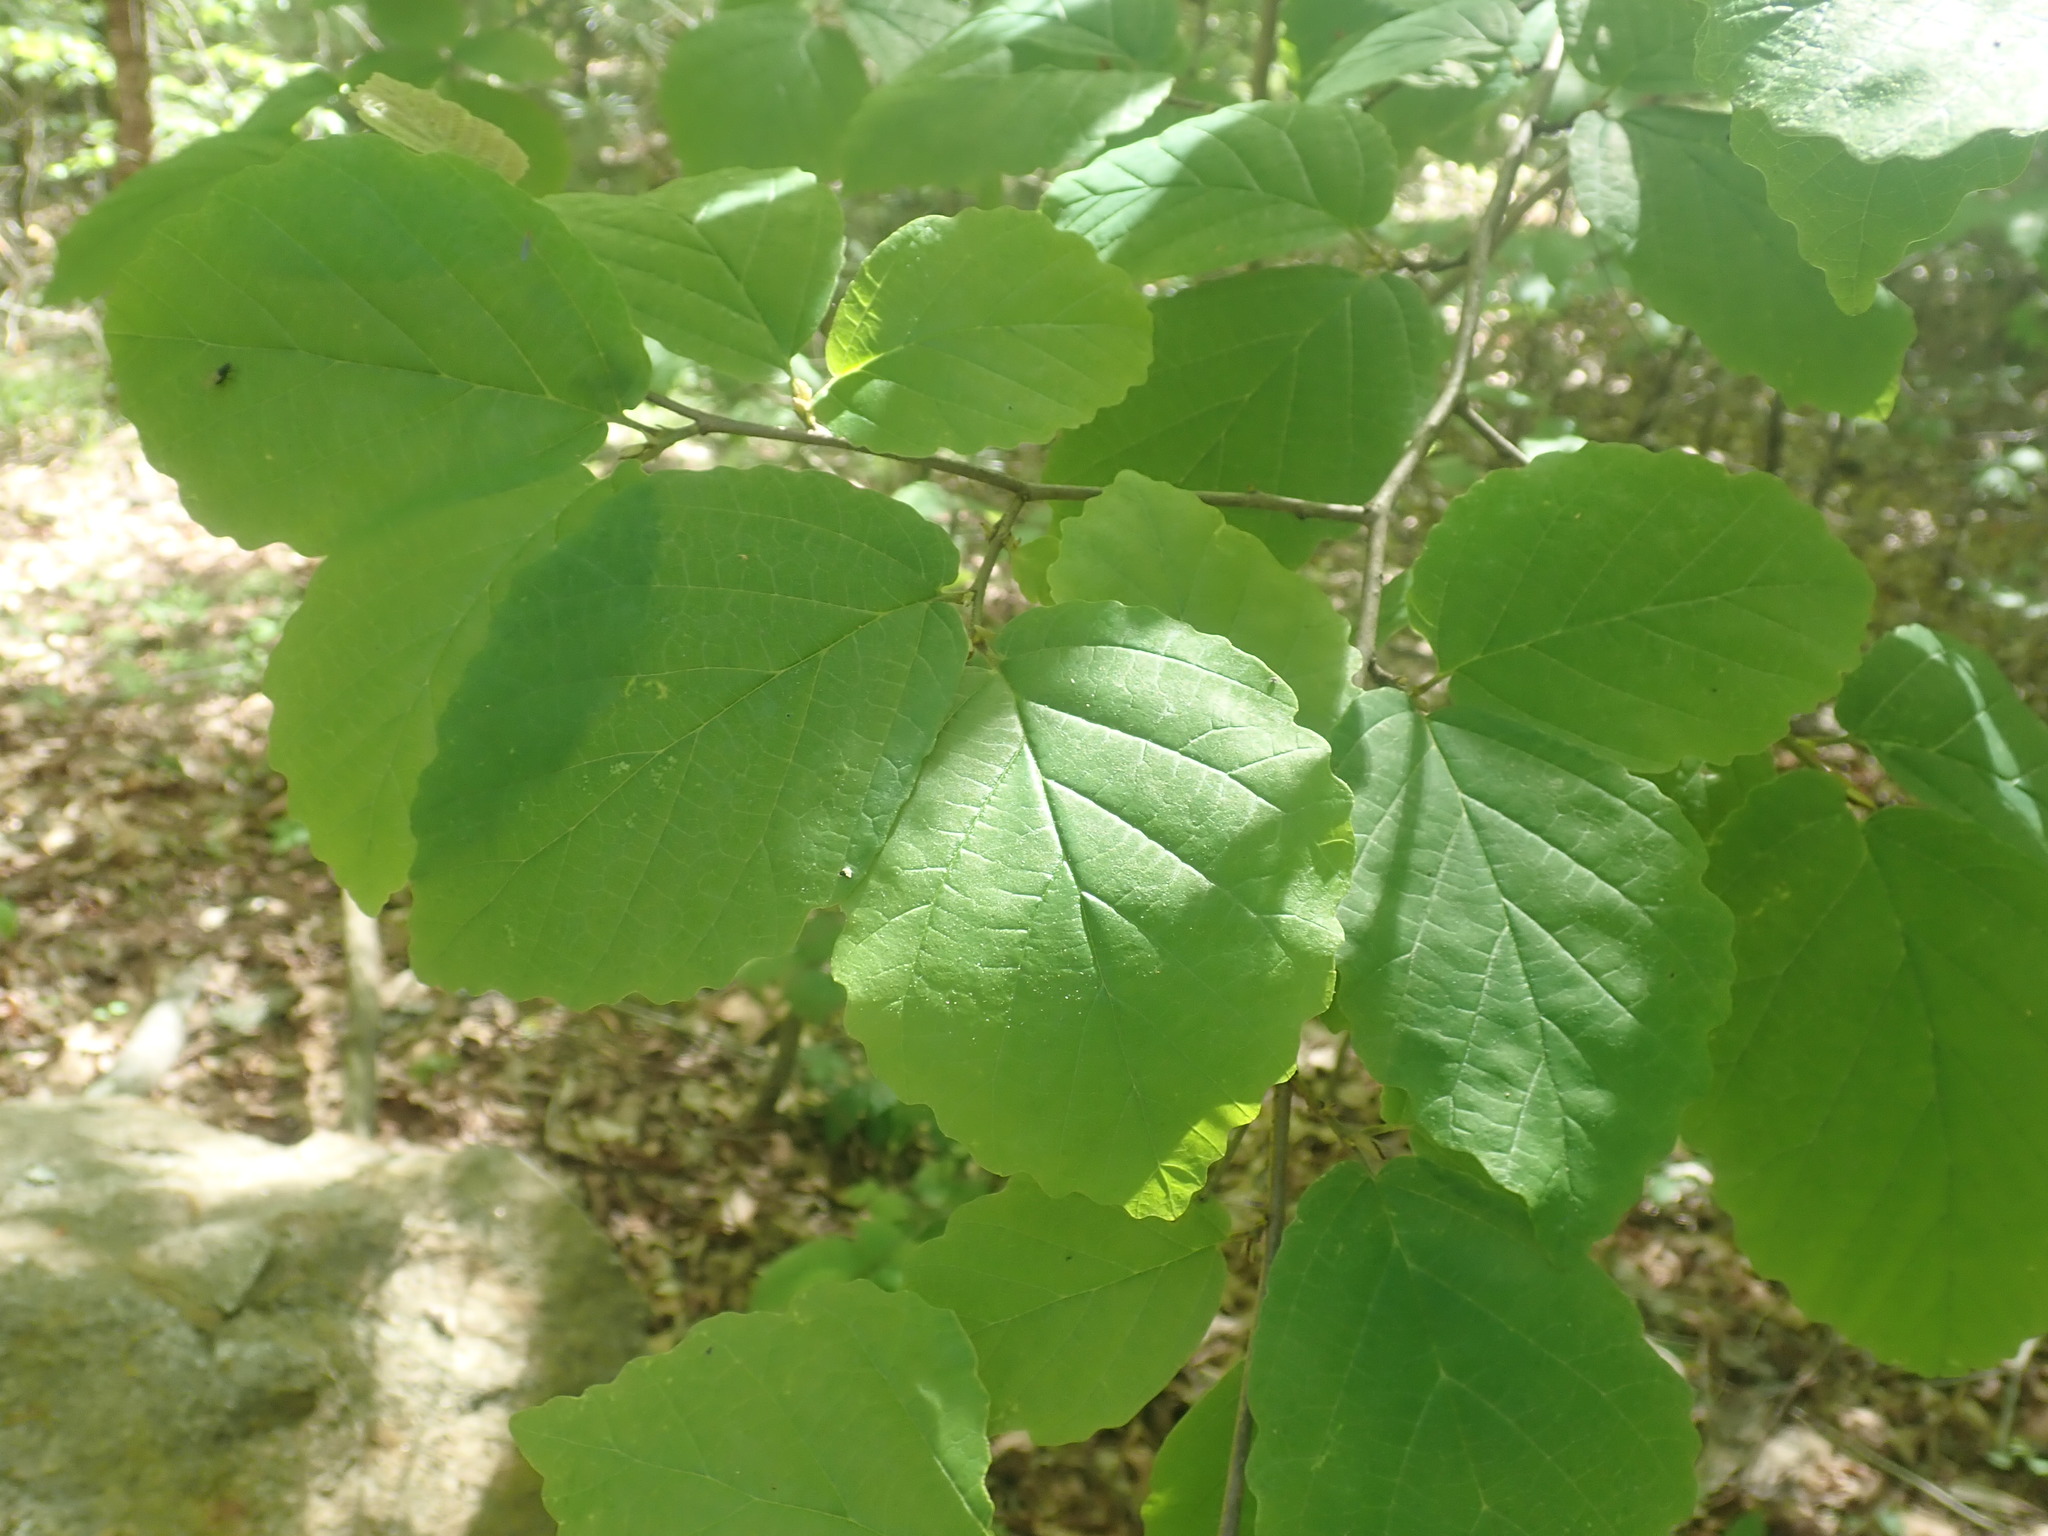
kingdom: Plantae
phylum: Tracheophyta
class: Magnoliopsida
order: Saxifragales
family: Hamamelidaceae
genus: Hamamelis
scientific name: Hamamelis virginiana
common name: Witch-hazel
